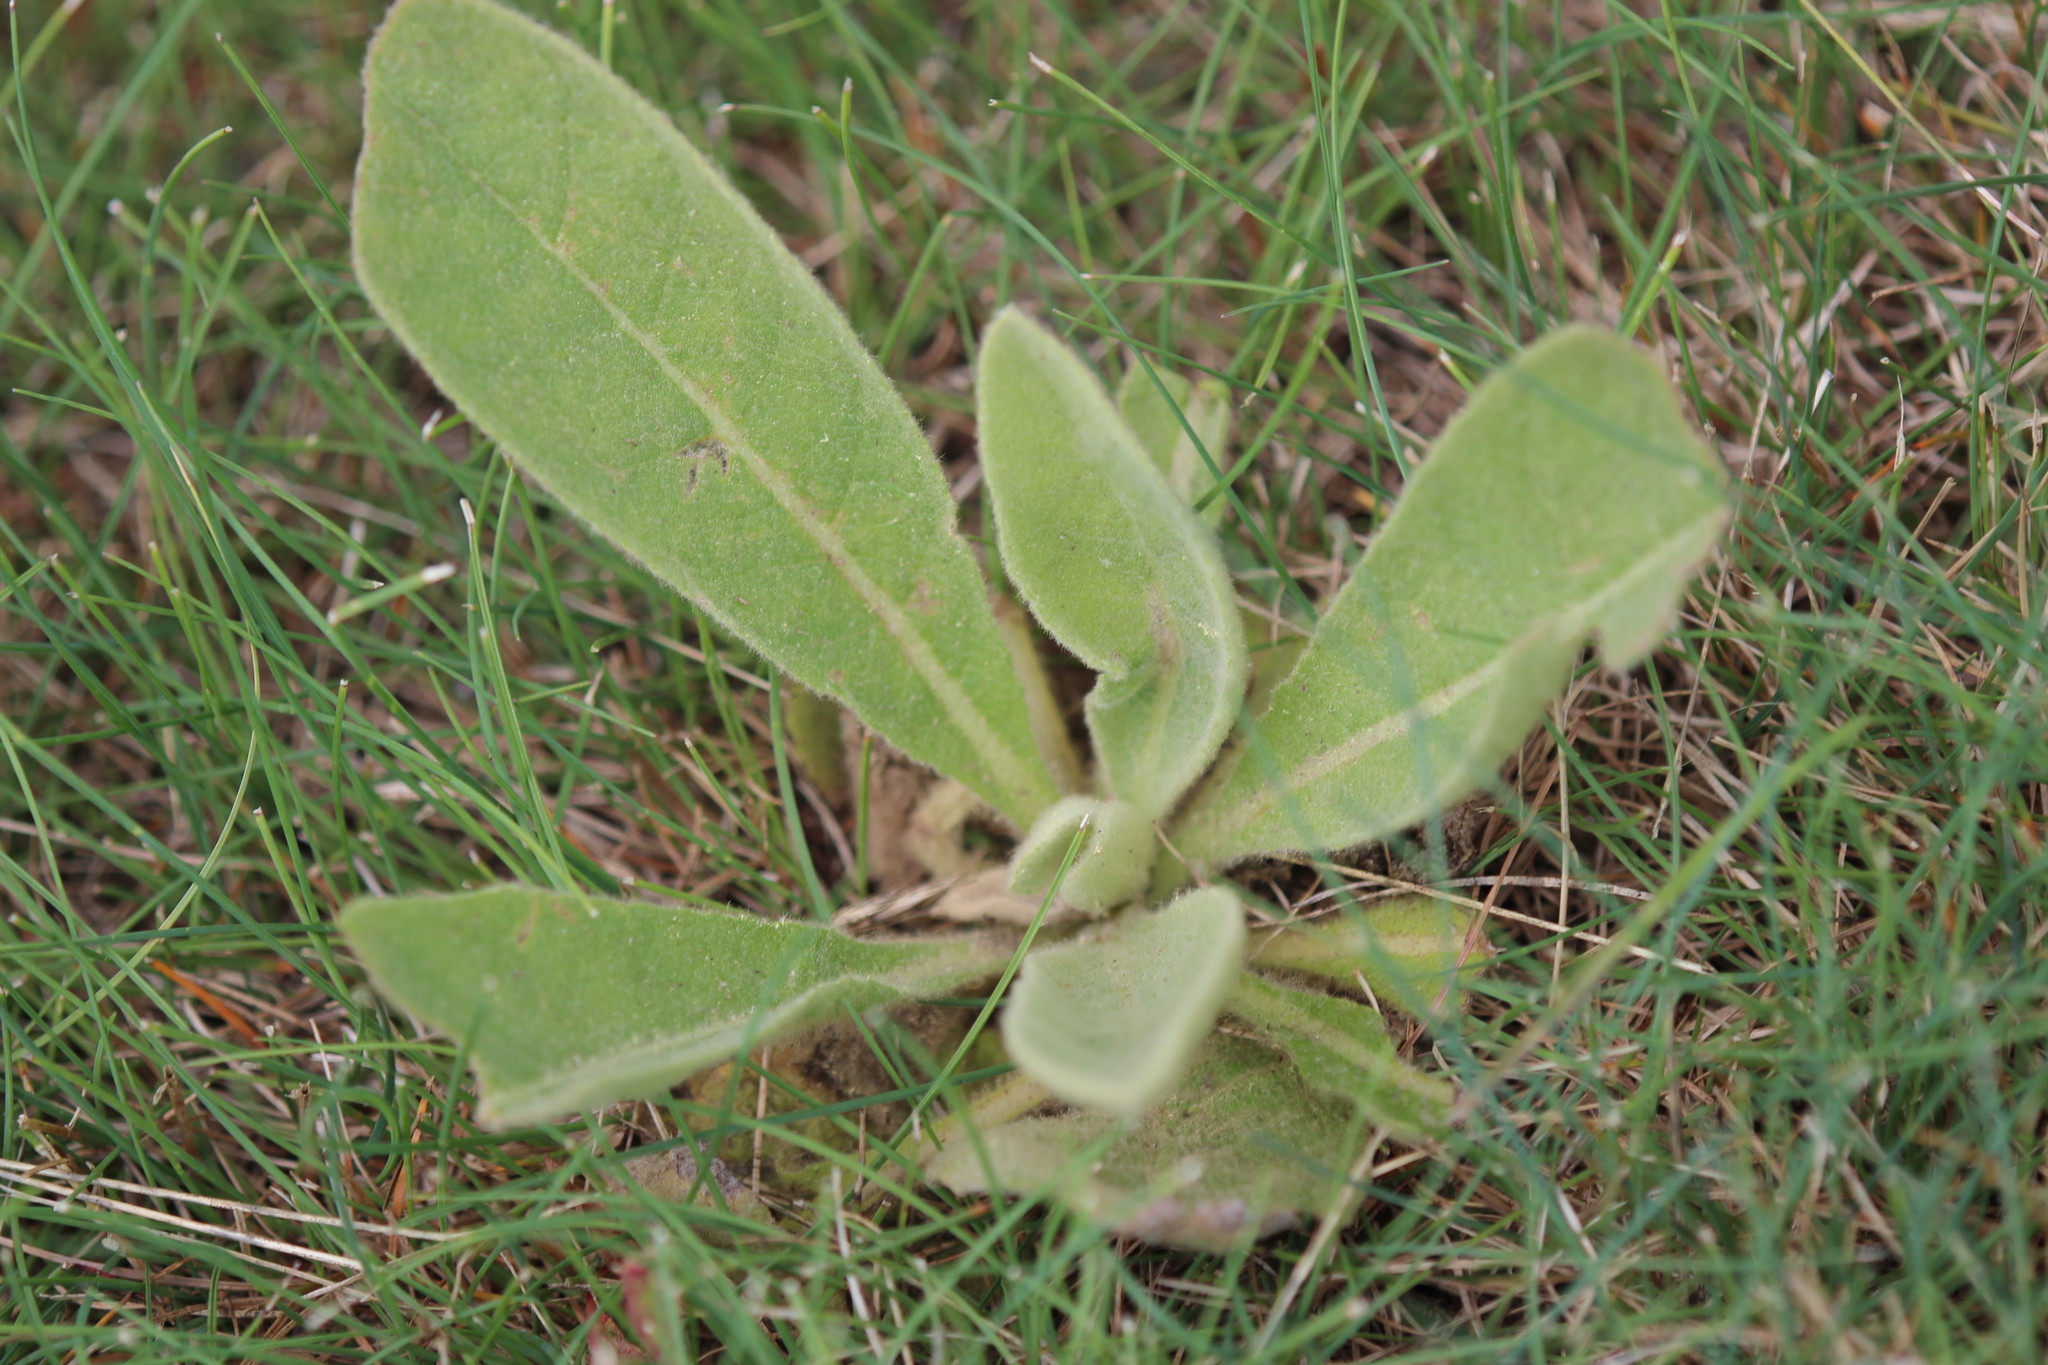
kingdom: Plantae
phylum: Tracheophyta
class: Magnoliopsida
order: Lamiales
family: Scrophulariaceae
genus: Verbascum
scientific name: Verbascum thapsus
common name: Common mullein
